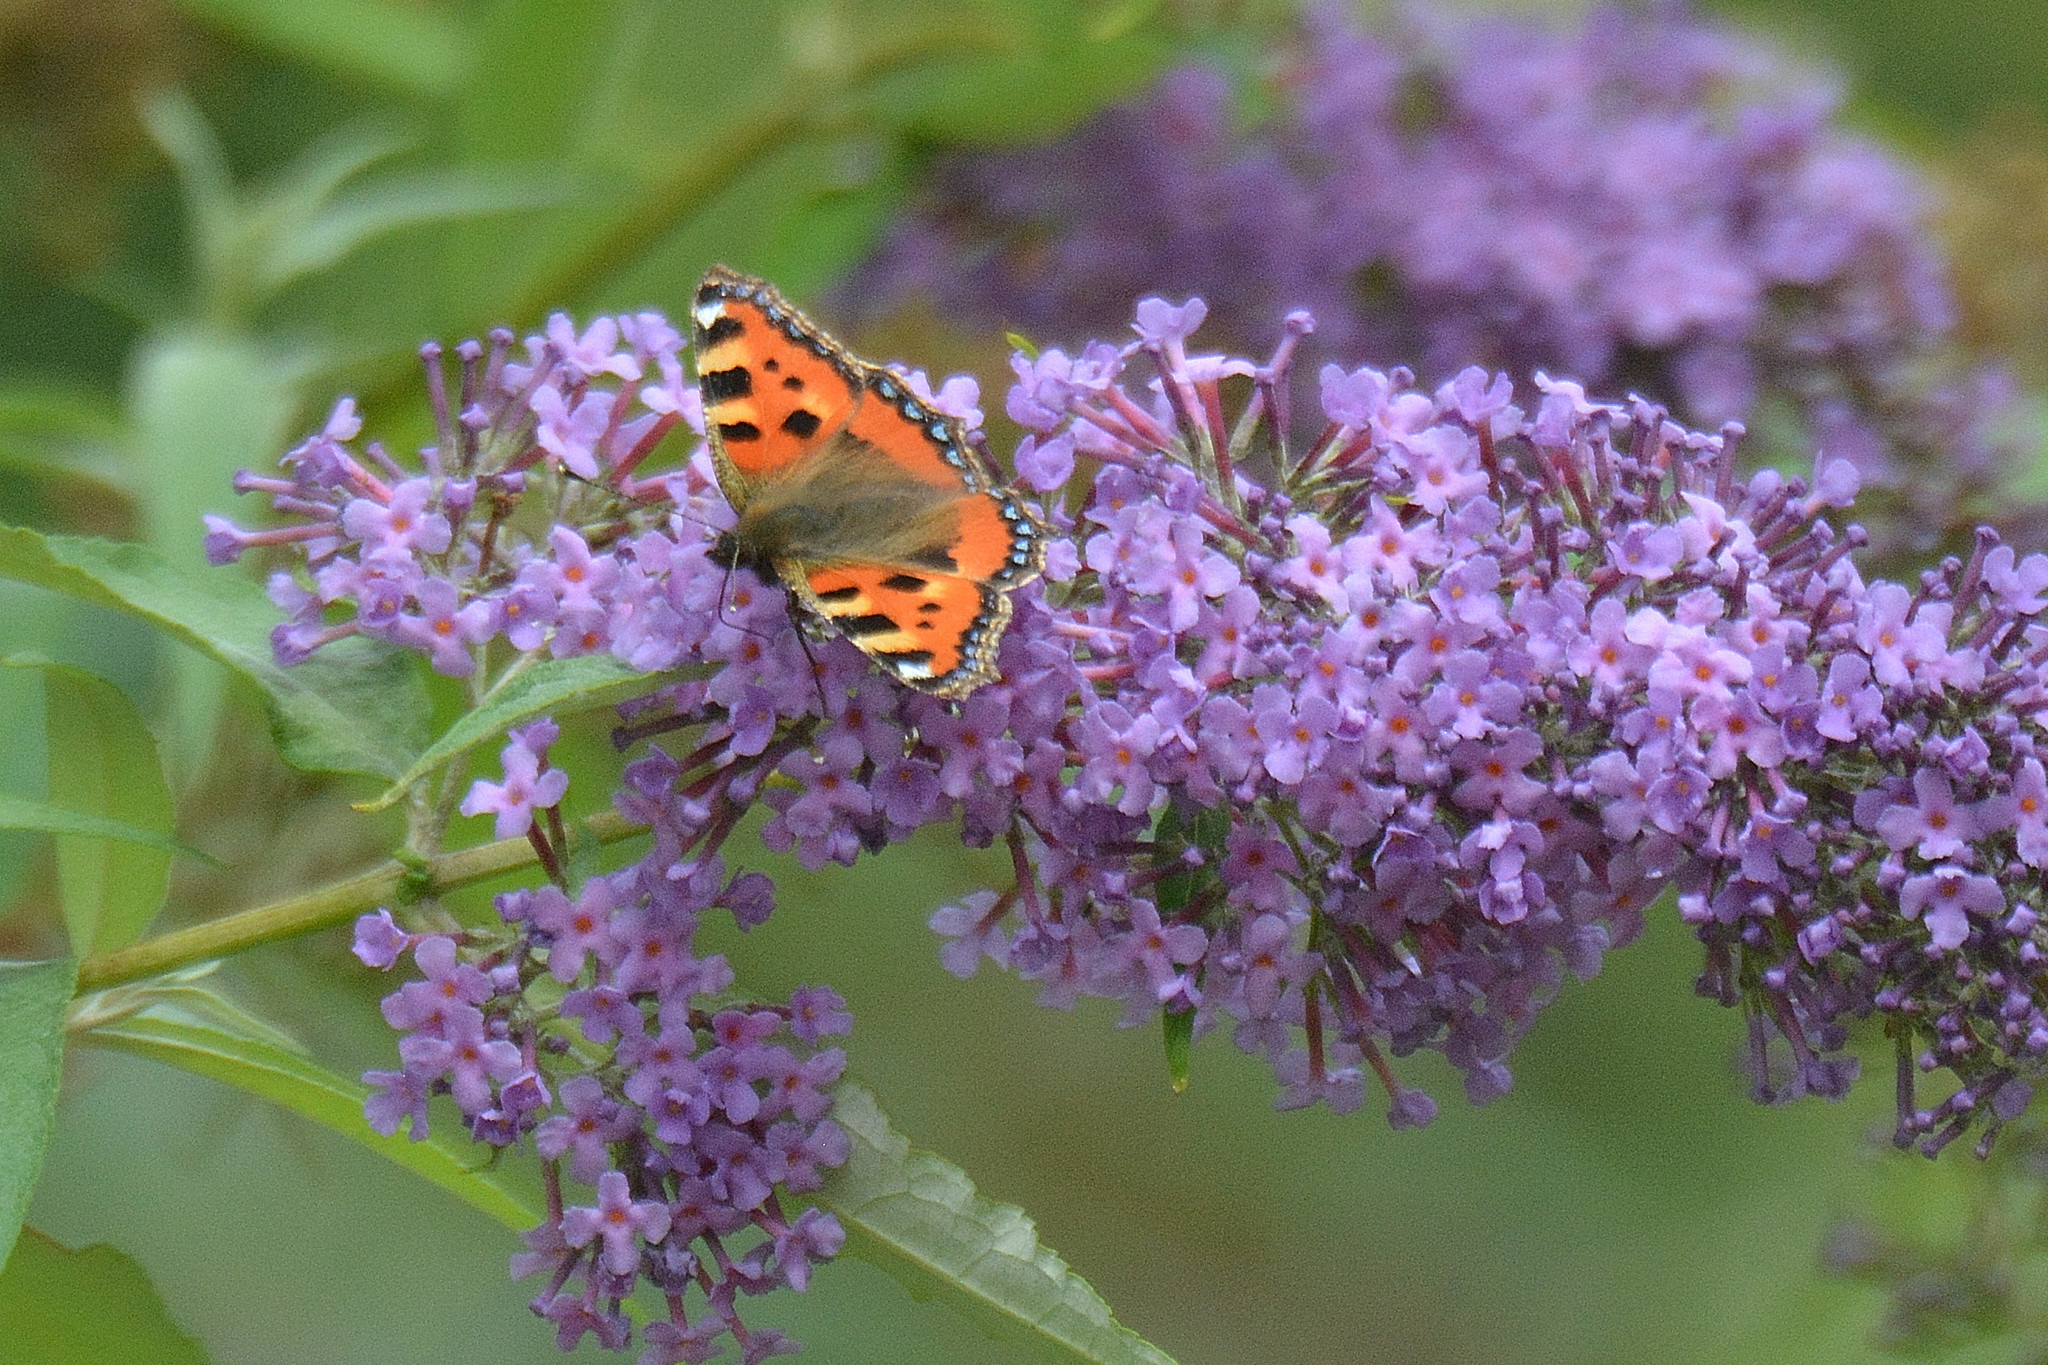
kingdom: Animalia
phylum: Arthropoda
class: Insecta
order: Lepidoptera
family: Nymphalidae
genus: Aglais
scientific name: Aglais urticae
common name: Small tortoiseshell
